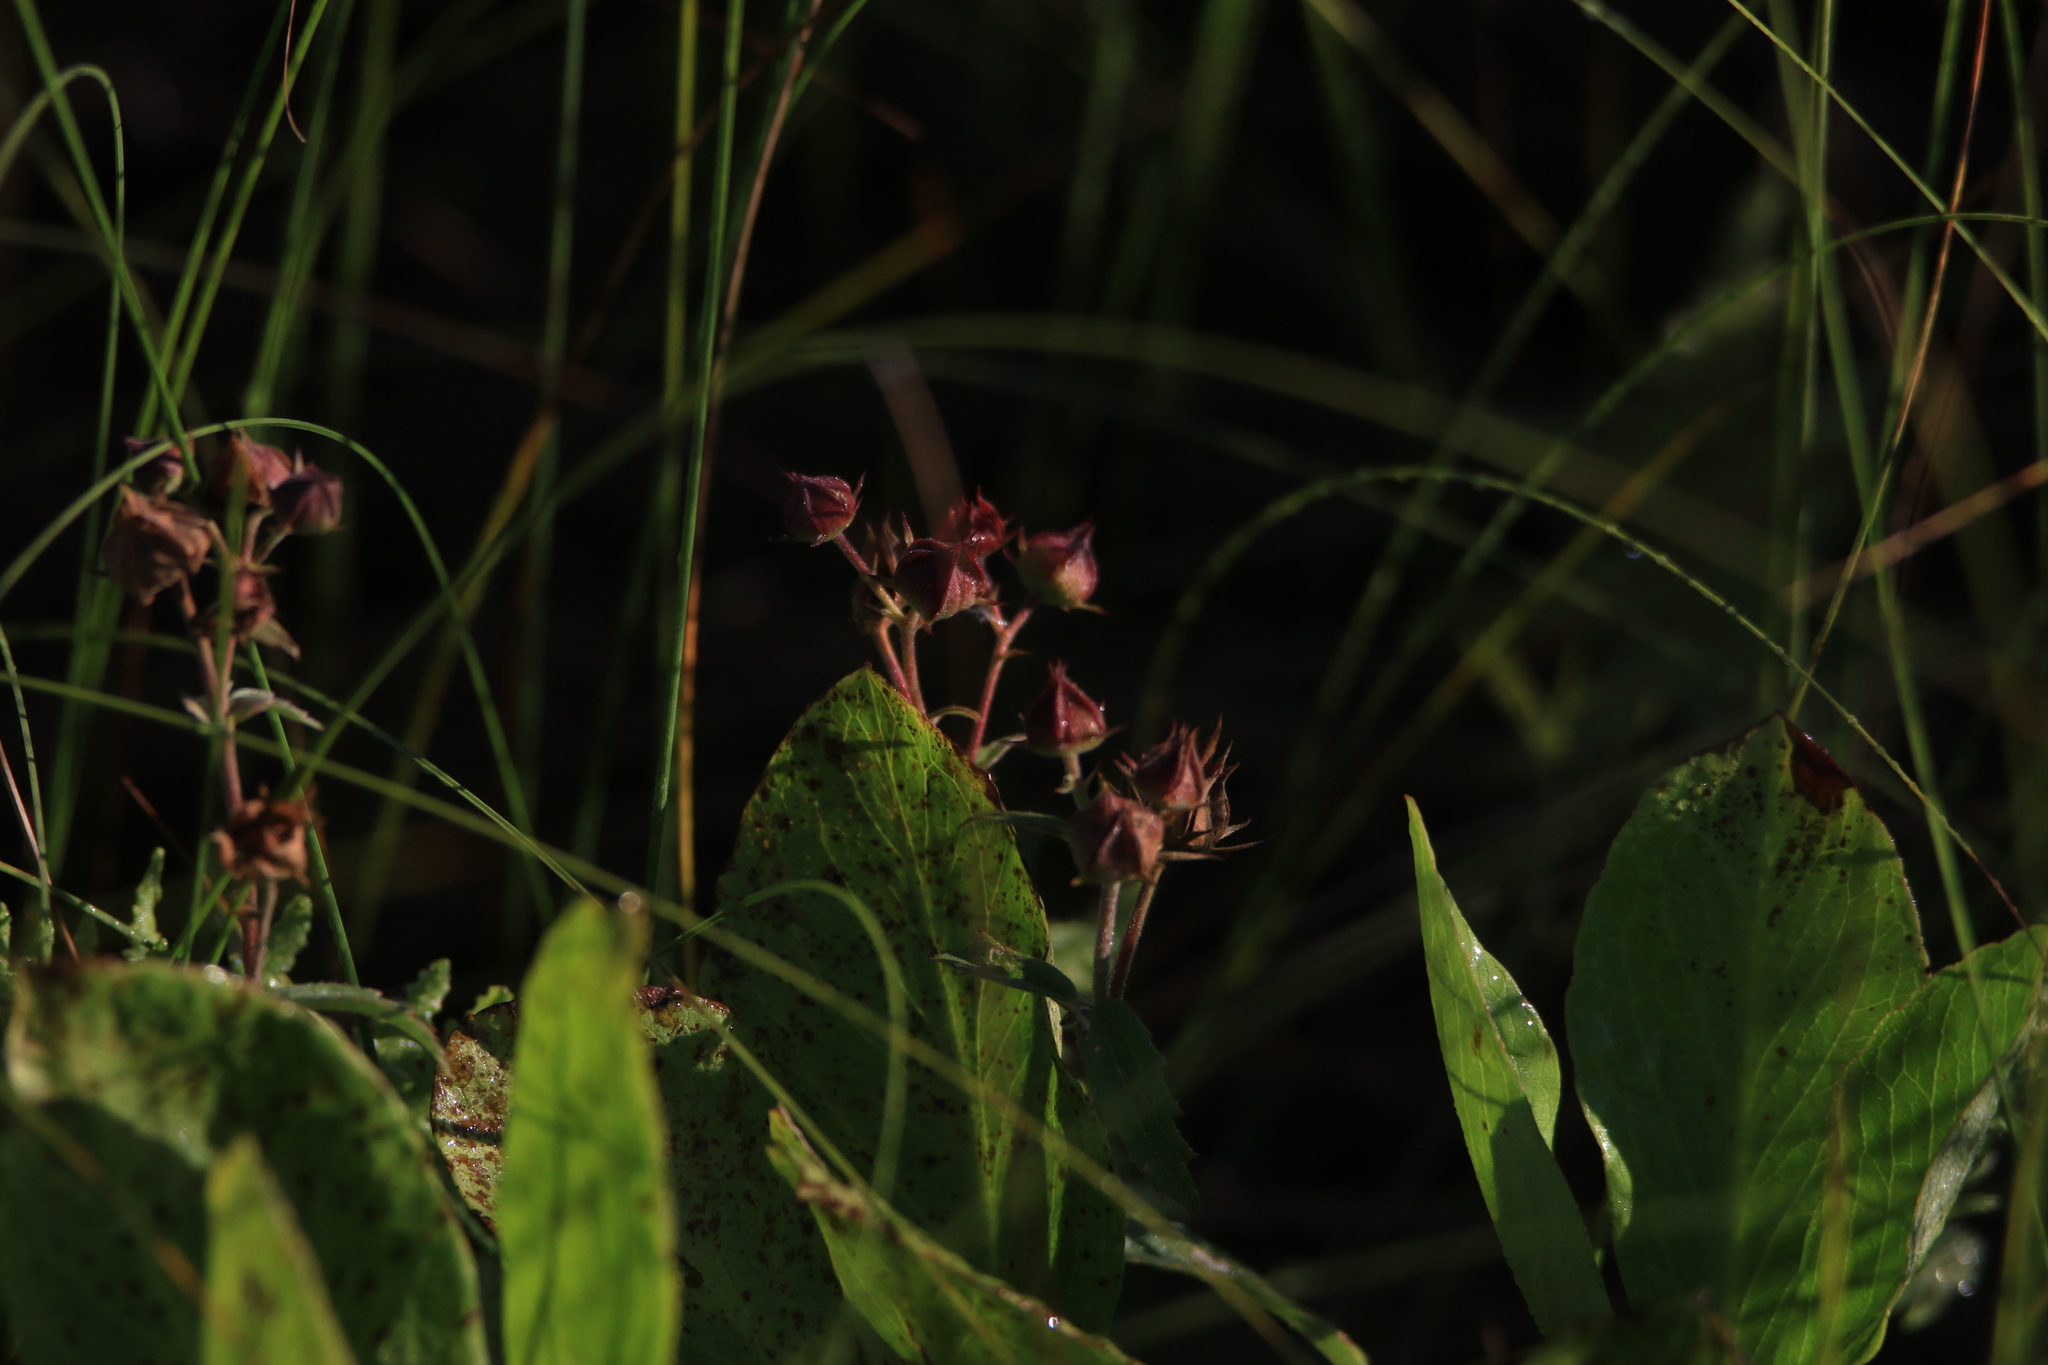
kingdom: Plantae
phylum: Tracheophyta
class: Magnoliopsida
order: Rosales
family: Rosaceae
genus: Comarum
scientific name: Comarum palustre
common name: Marsh cinquefoil
